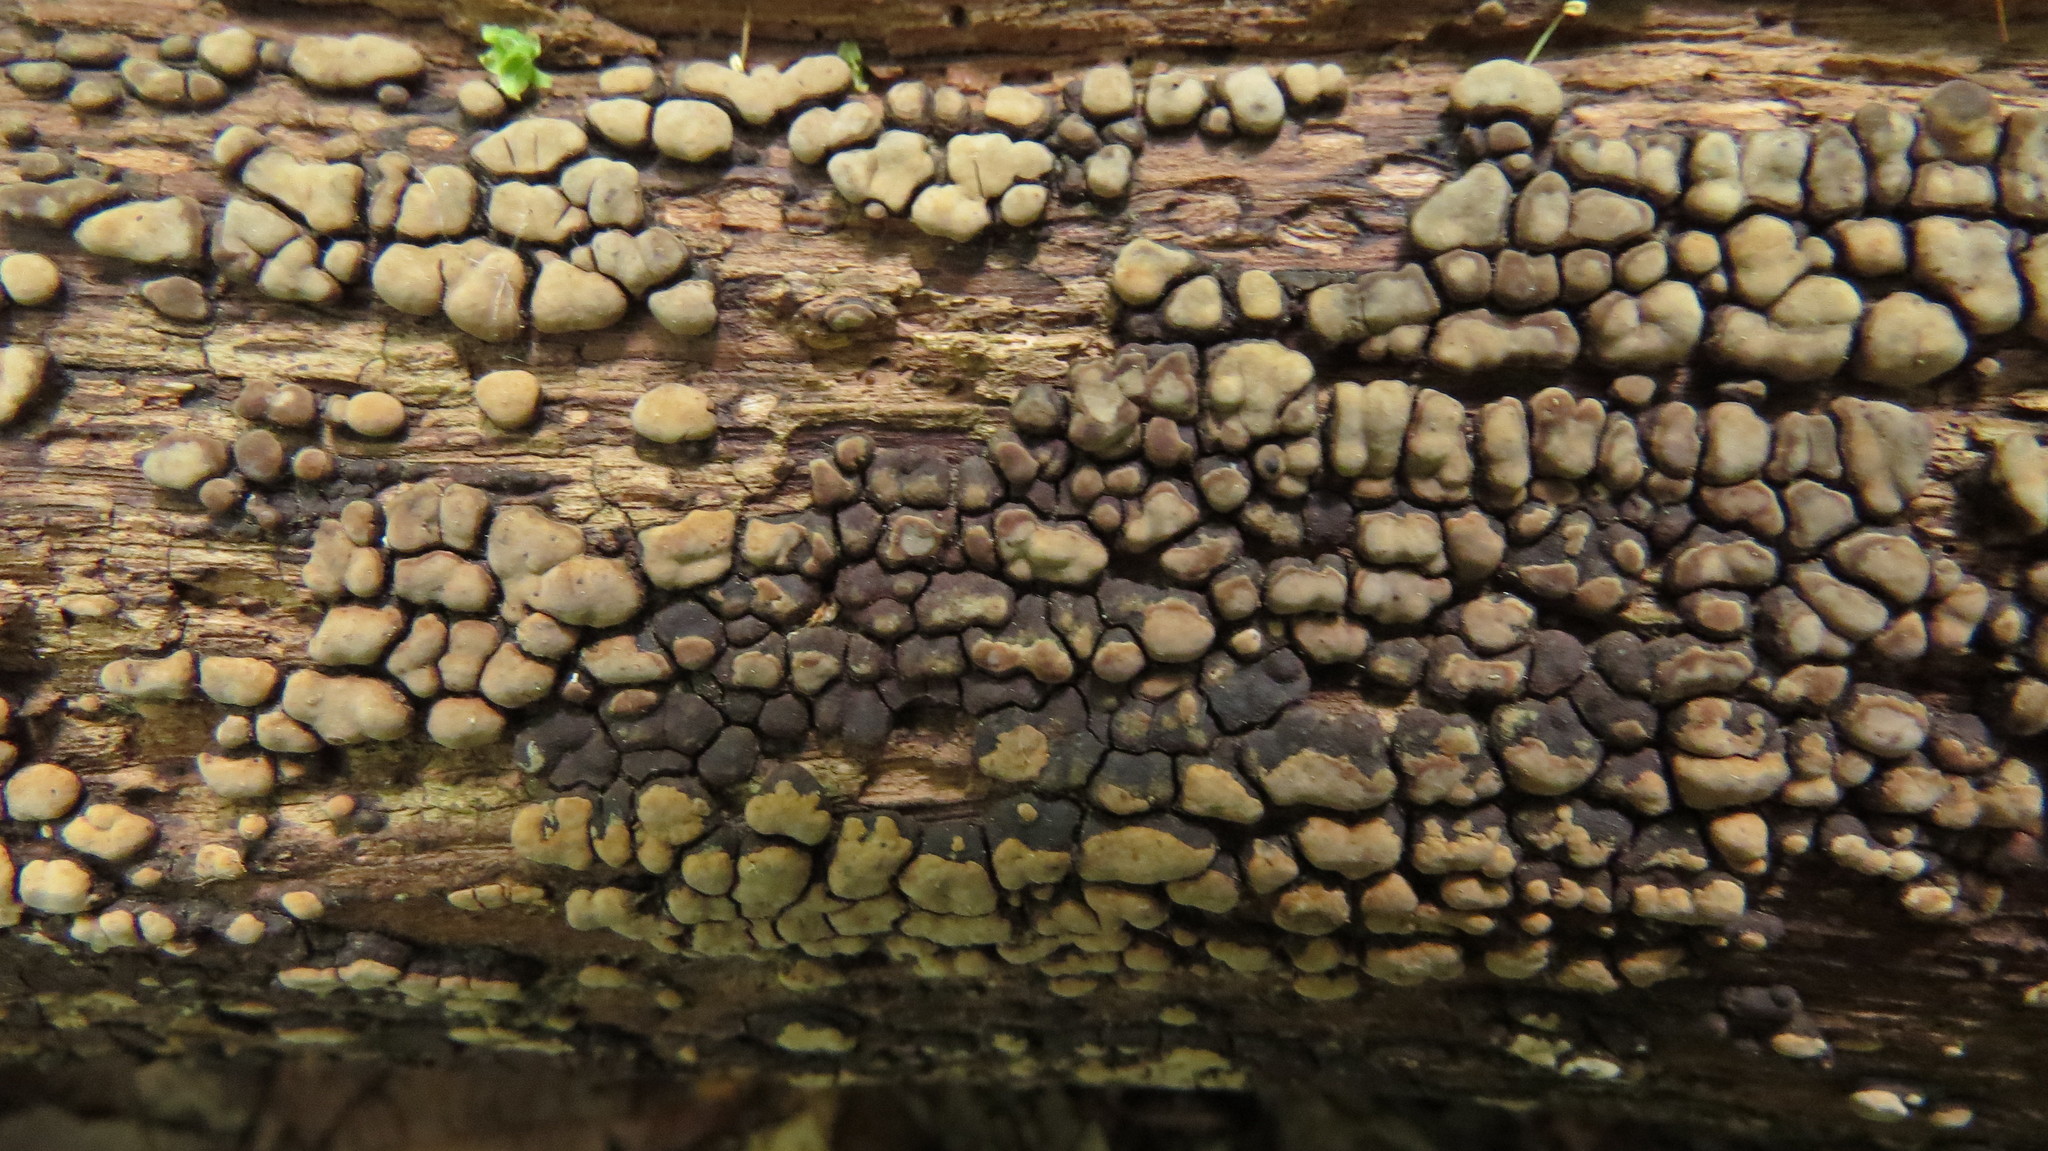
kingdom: Fungi
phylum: Basidiomycota
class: Agaricomycetes
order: Russulales
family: Stereaceae
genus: Xylobolus
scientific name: Xylobolus frustulatus
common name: Ceramic parchment
